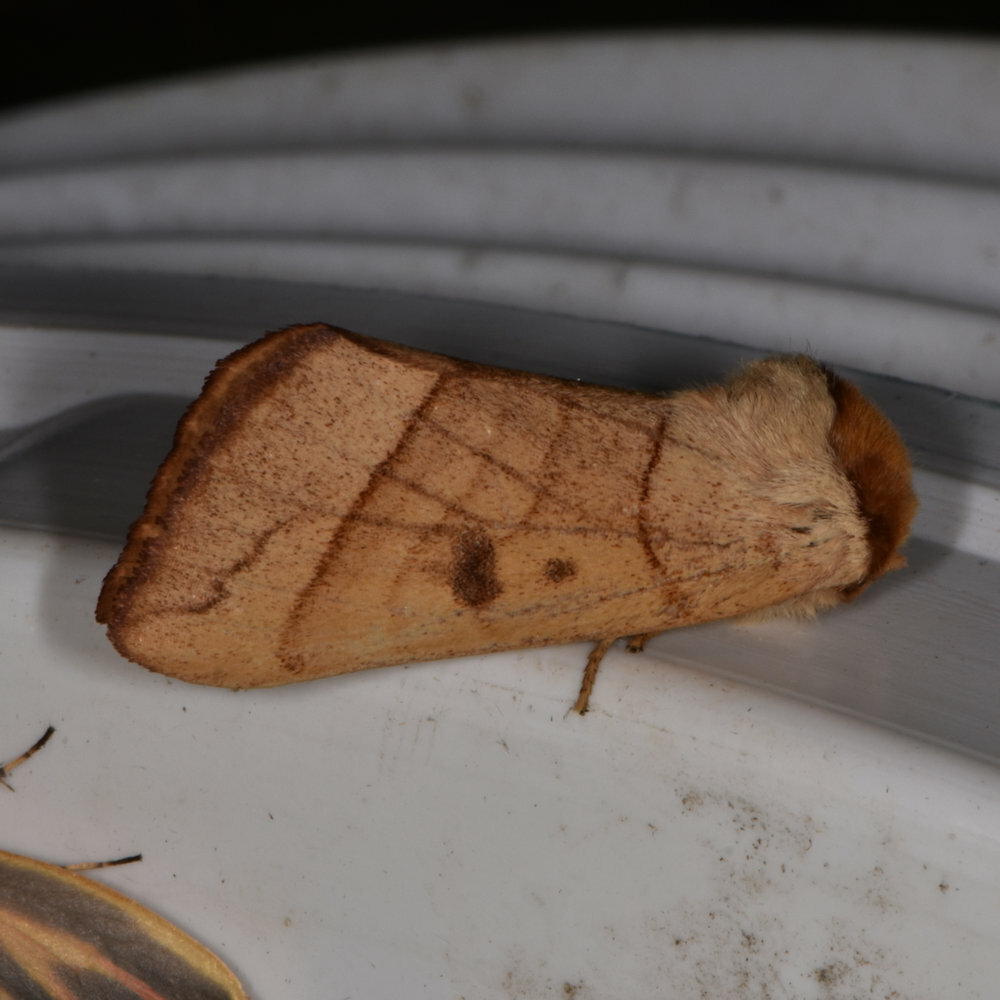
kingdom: Animalia
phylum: Arthropoda
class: Insecta
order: Lepidoptera
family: Notodontidae
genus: Datana
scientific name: Datana perspicua
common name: Spotted datana
